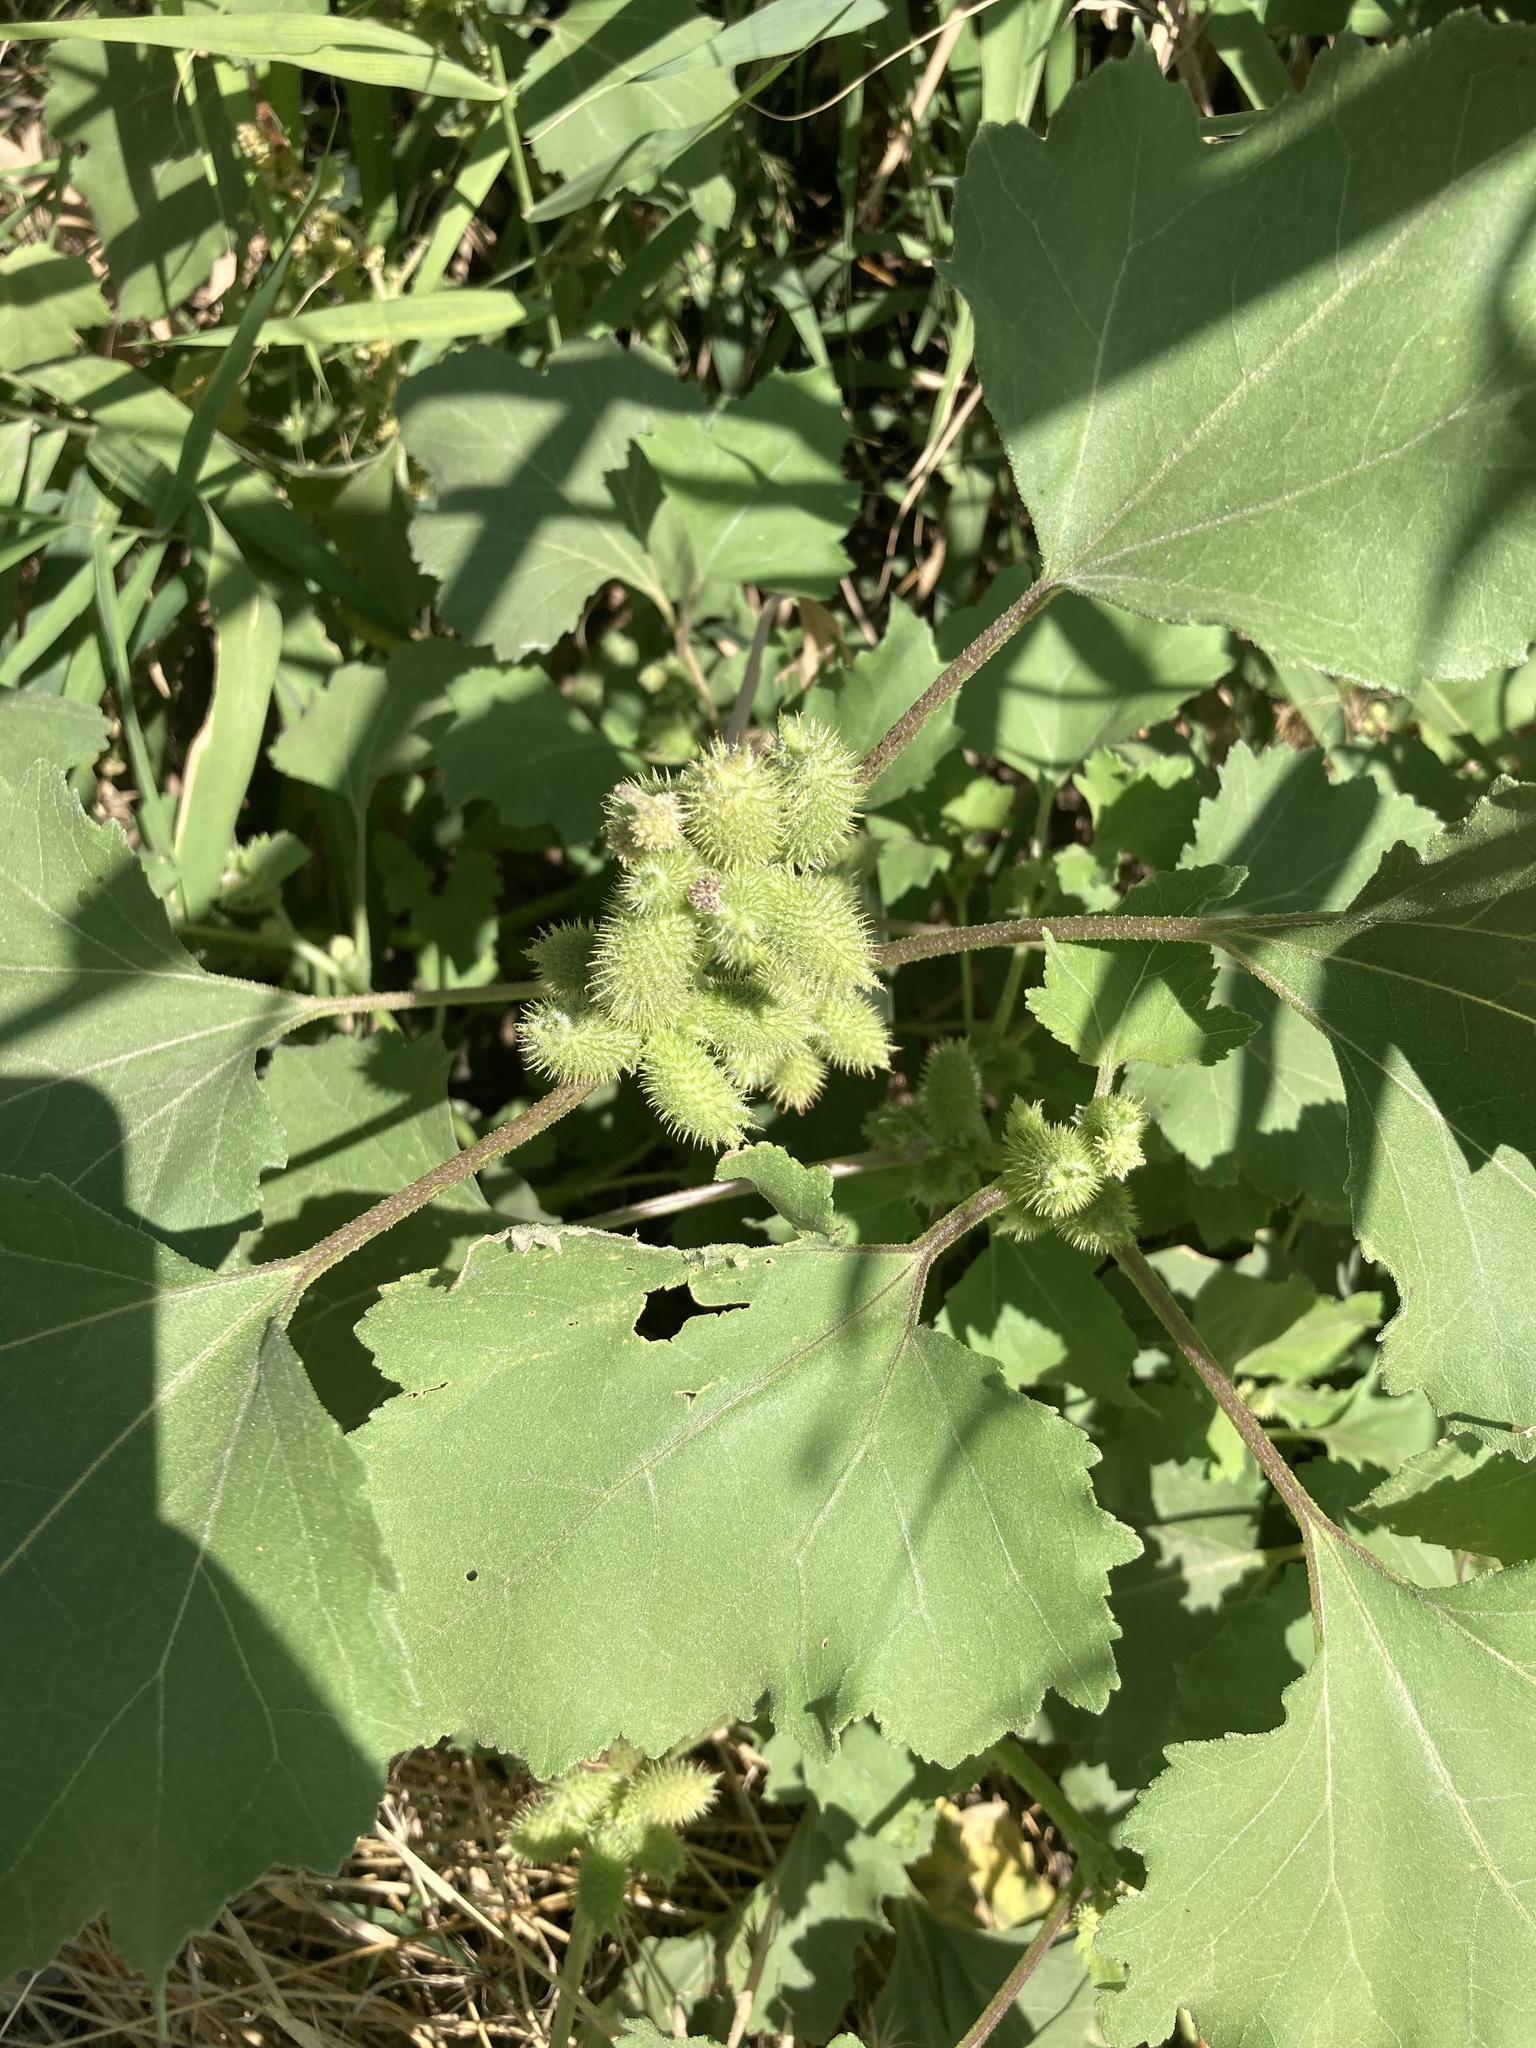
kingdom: Plantae
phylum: Tracheophyta
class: Magnoliopsida
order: Asterales
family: Asteraceae
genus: Xanthium
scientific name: Xanthium orientale
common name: Californian burr
